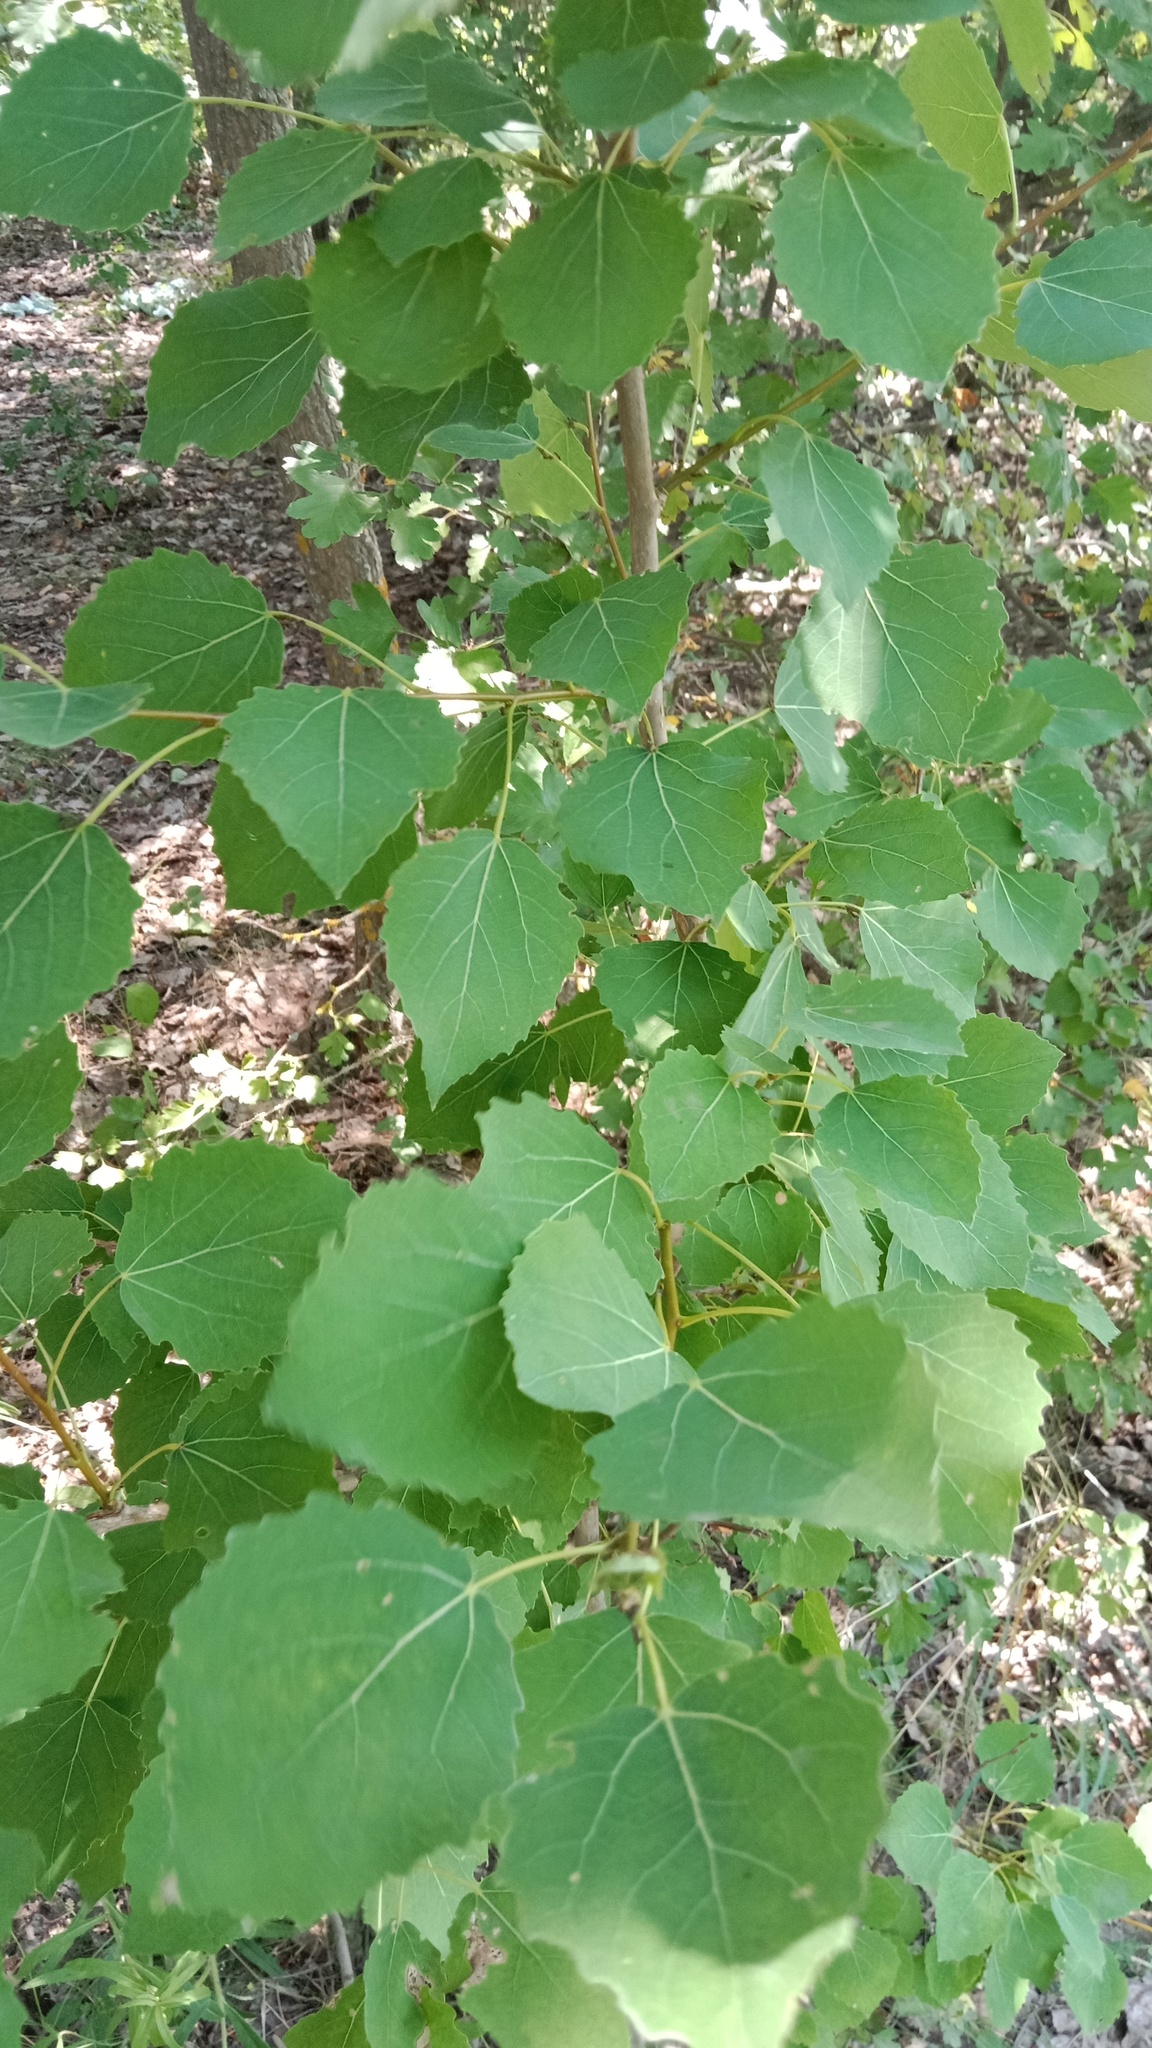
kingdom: Plantae
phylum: Tracheophyta
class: Magnoliopsida
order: Malpighiales
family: Salicaceae
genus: Populus
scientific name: Populus tremula
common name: European aspen
